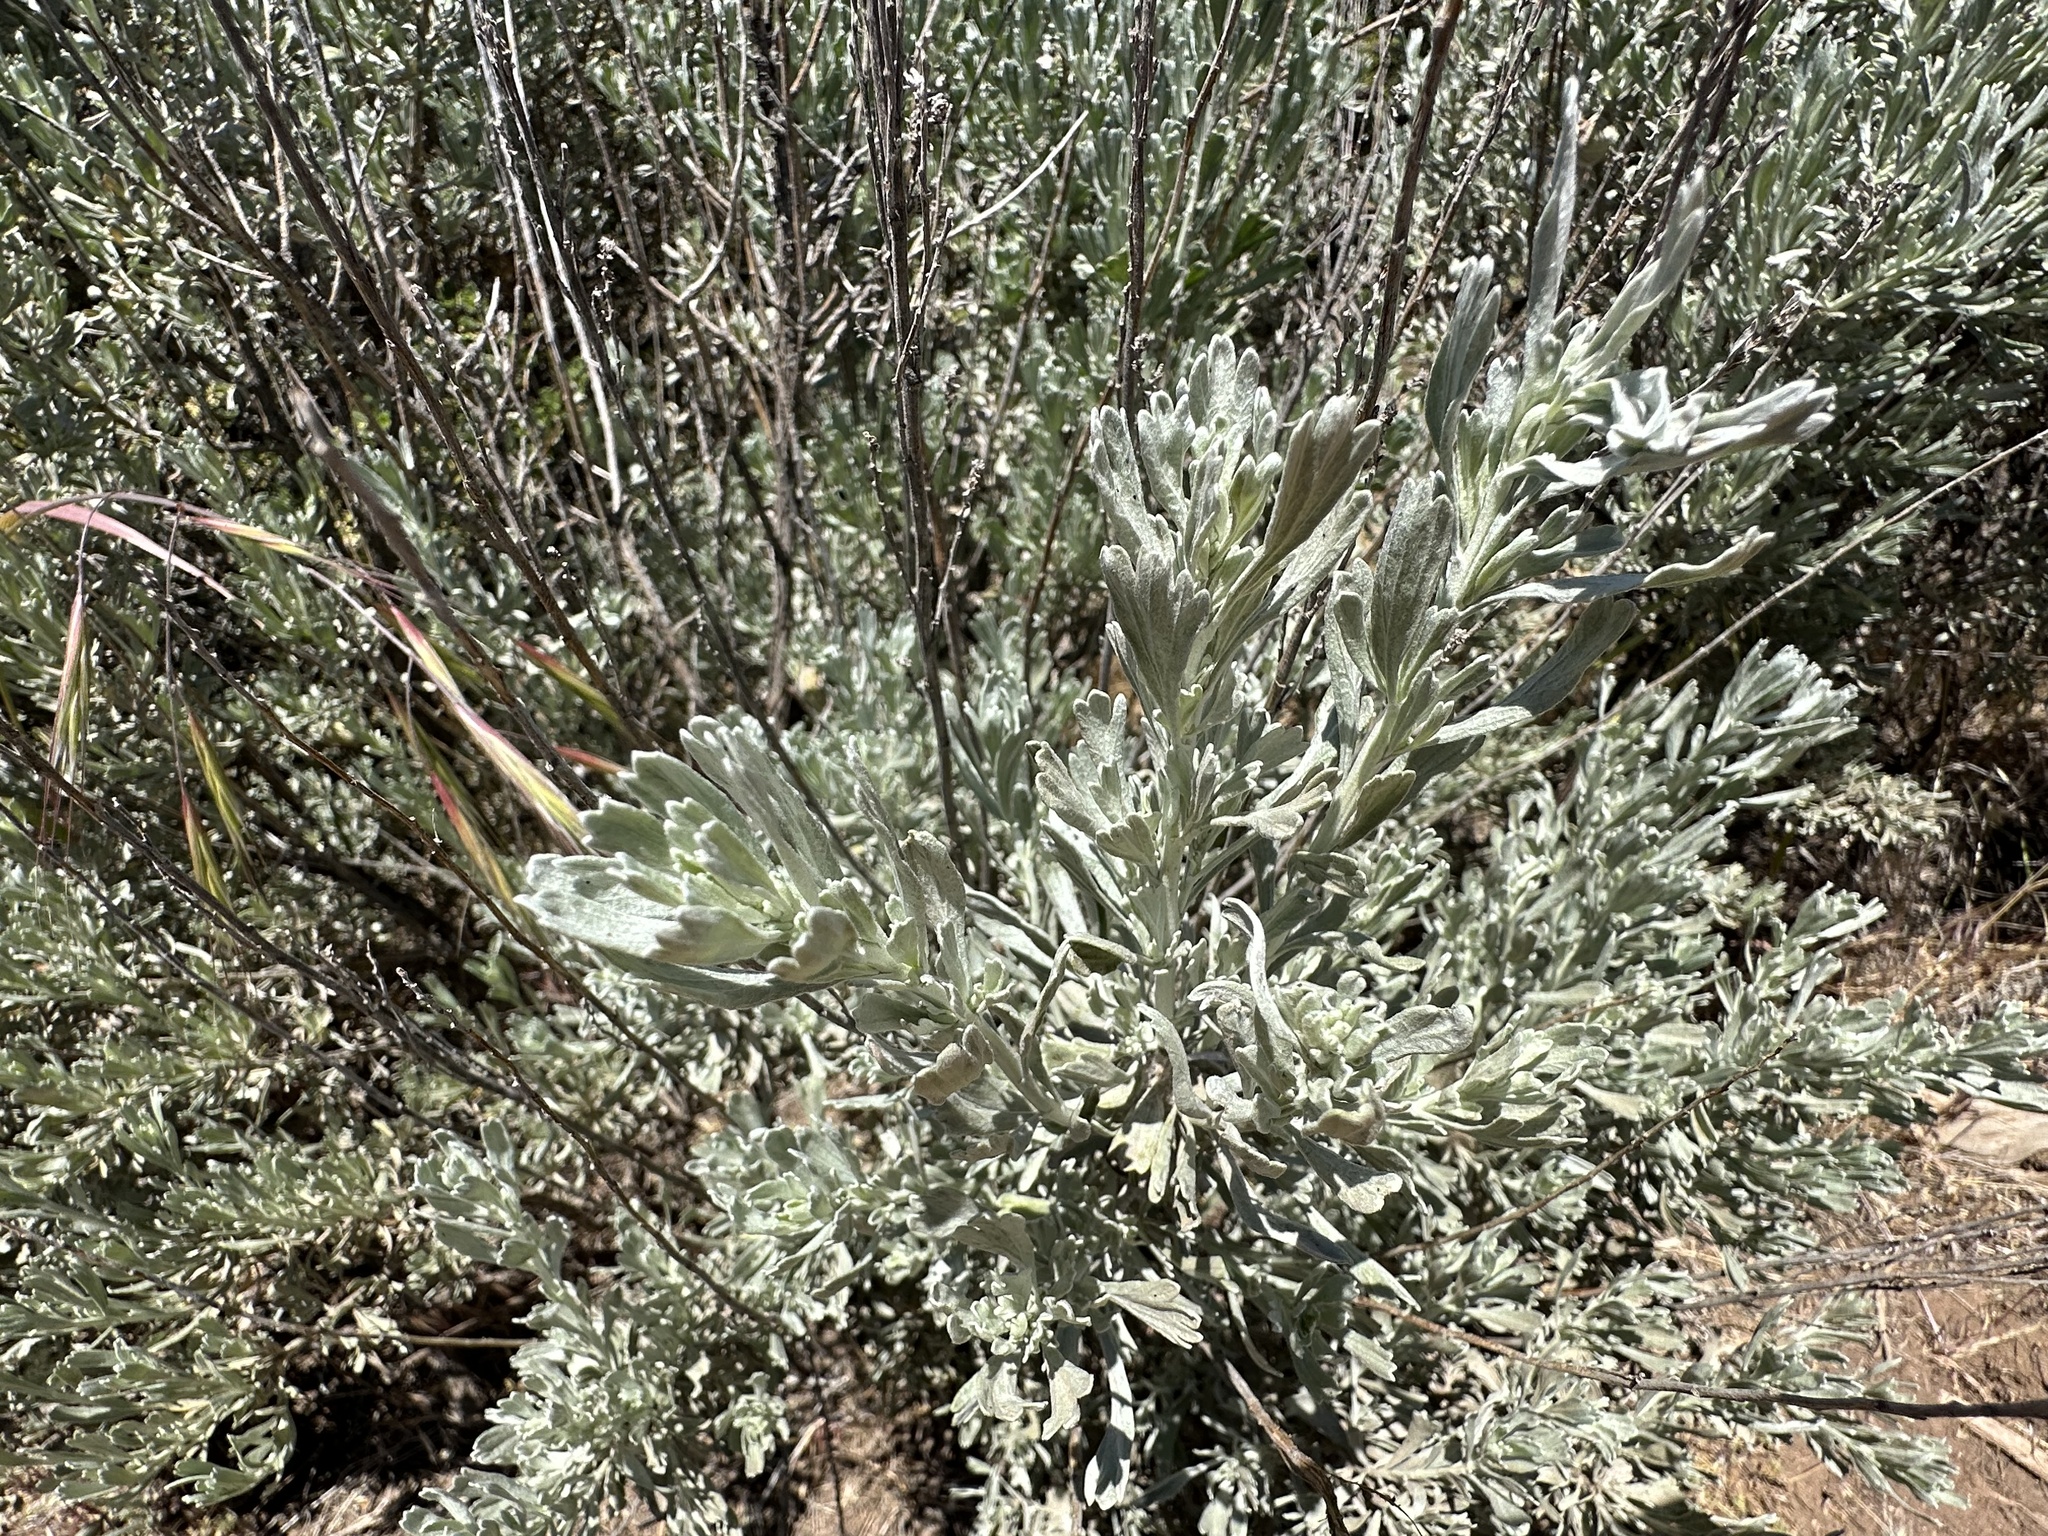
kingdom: Plantae
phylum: Tracheophyta
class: Magnoliopsida
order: Asterales
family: Asteraceae
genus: Artemisia
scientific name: Artemisia tridentata
